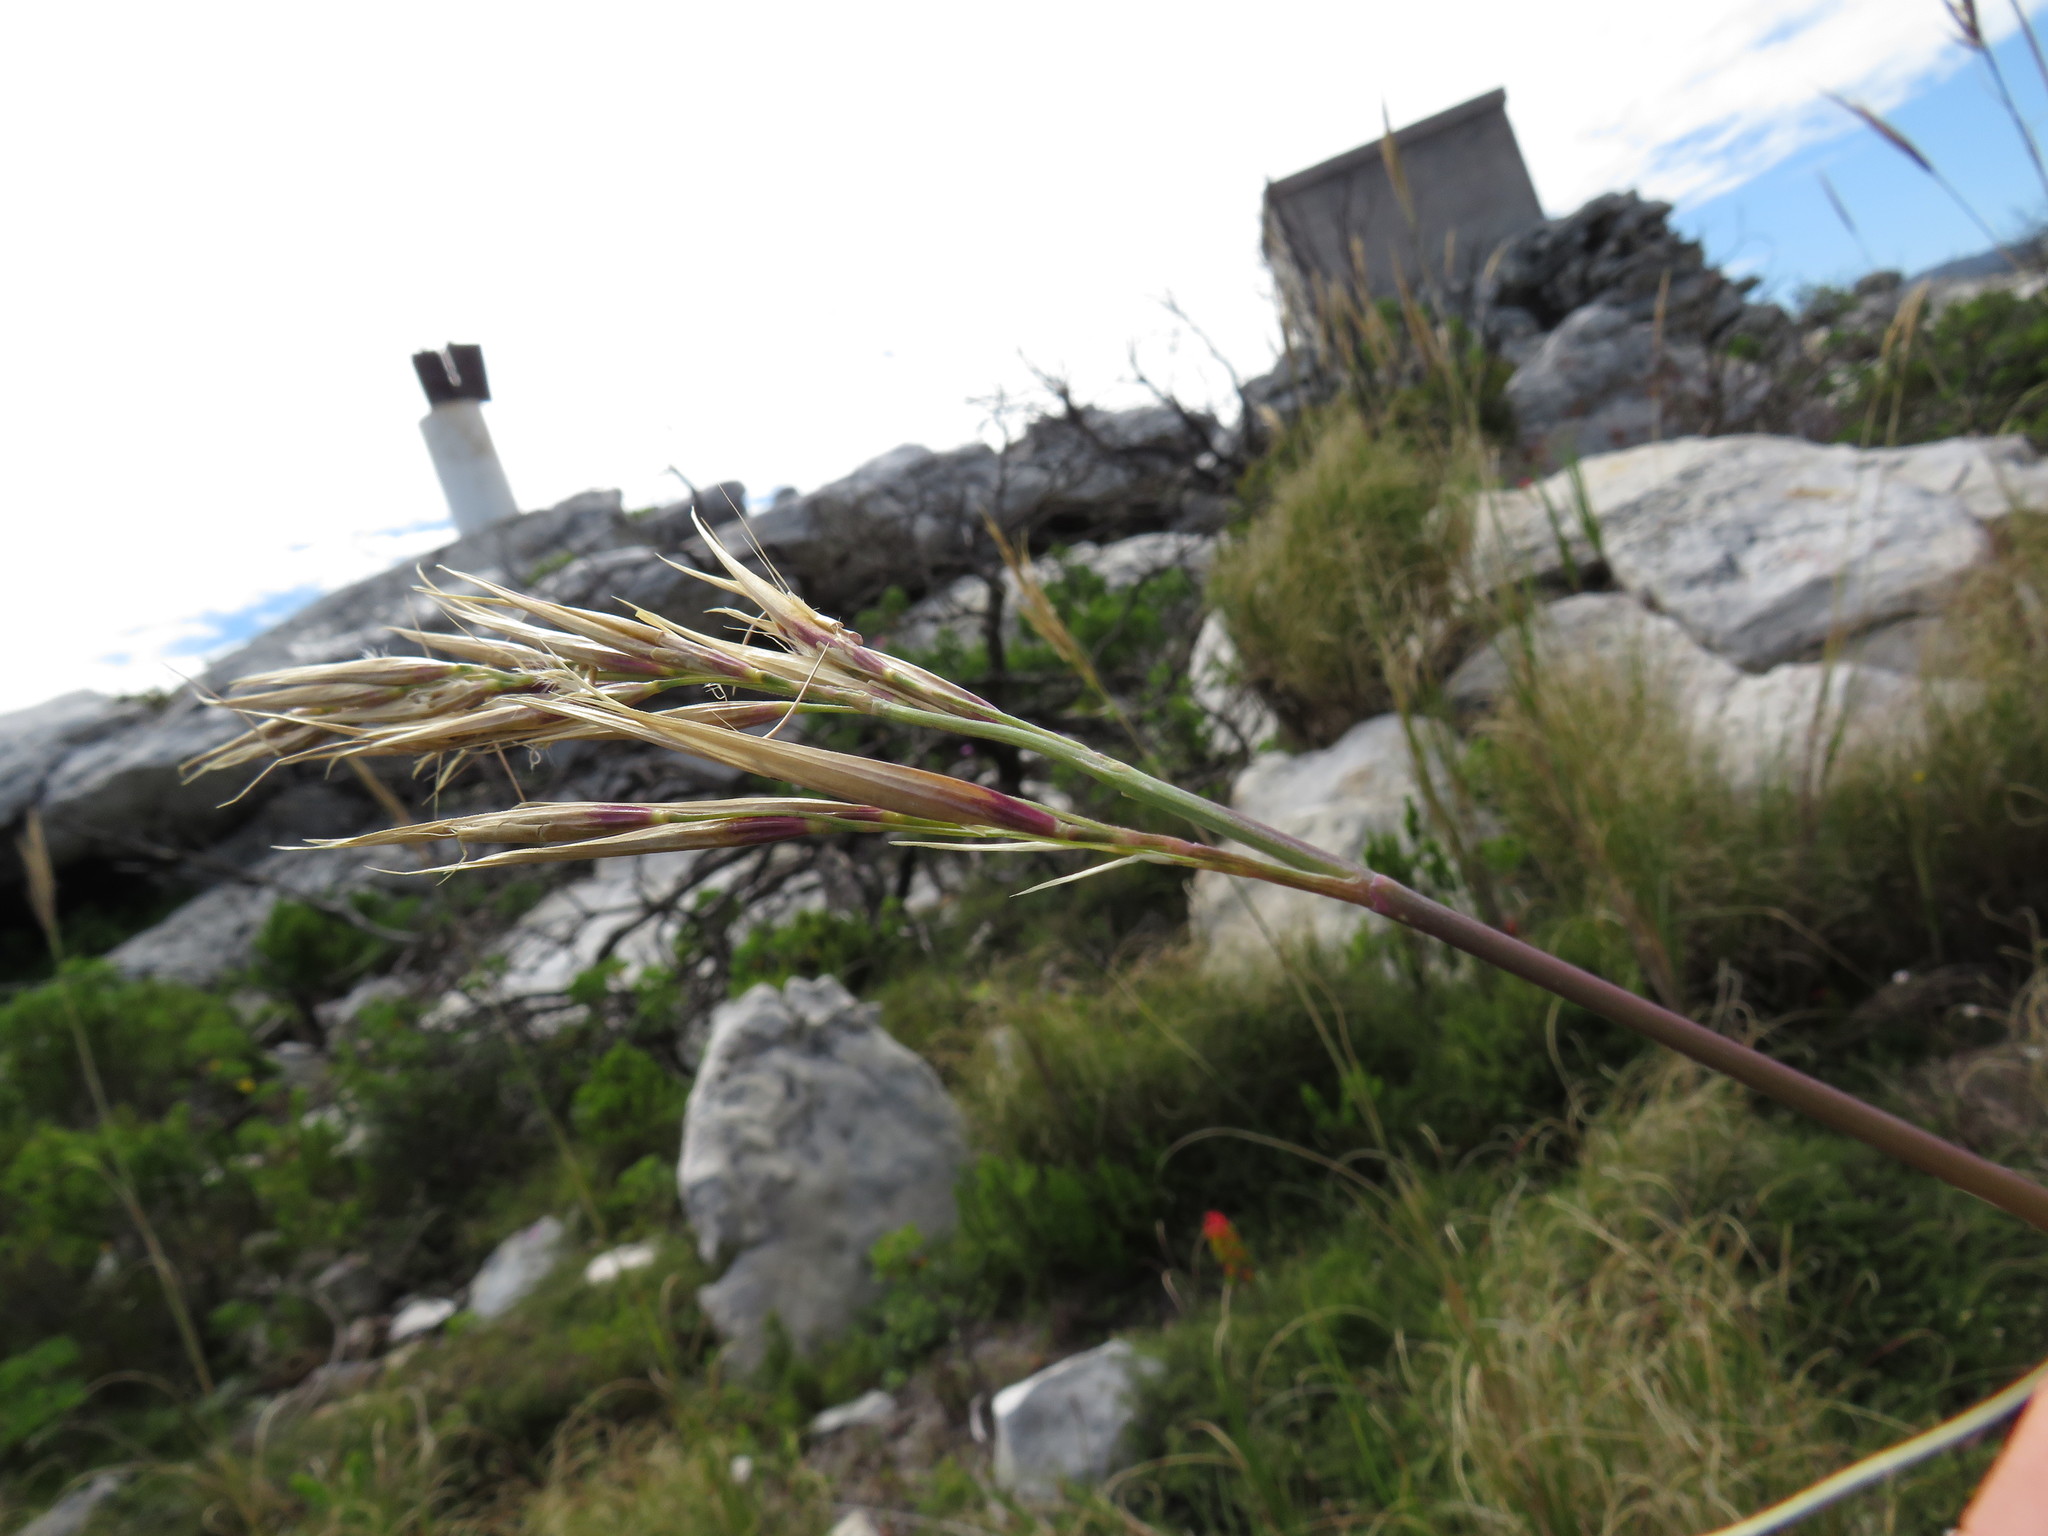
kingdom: Plantae
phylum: Tracheophyta
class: Liliopsida
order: Poales
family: Poaceae
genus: Pseudopentameris
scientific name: Pseudopentameris macrantha
